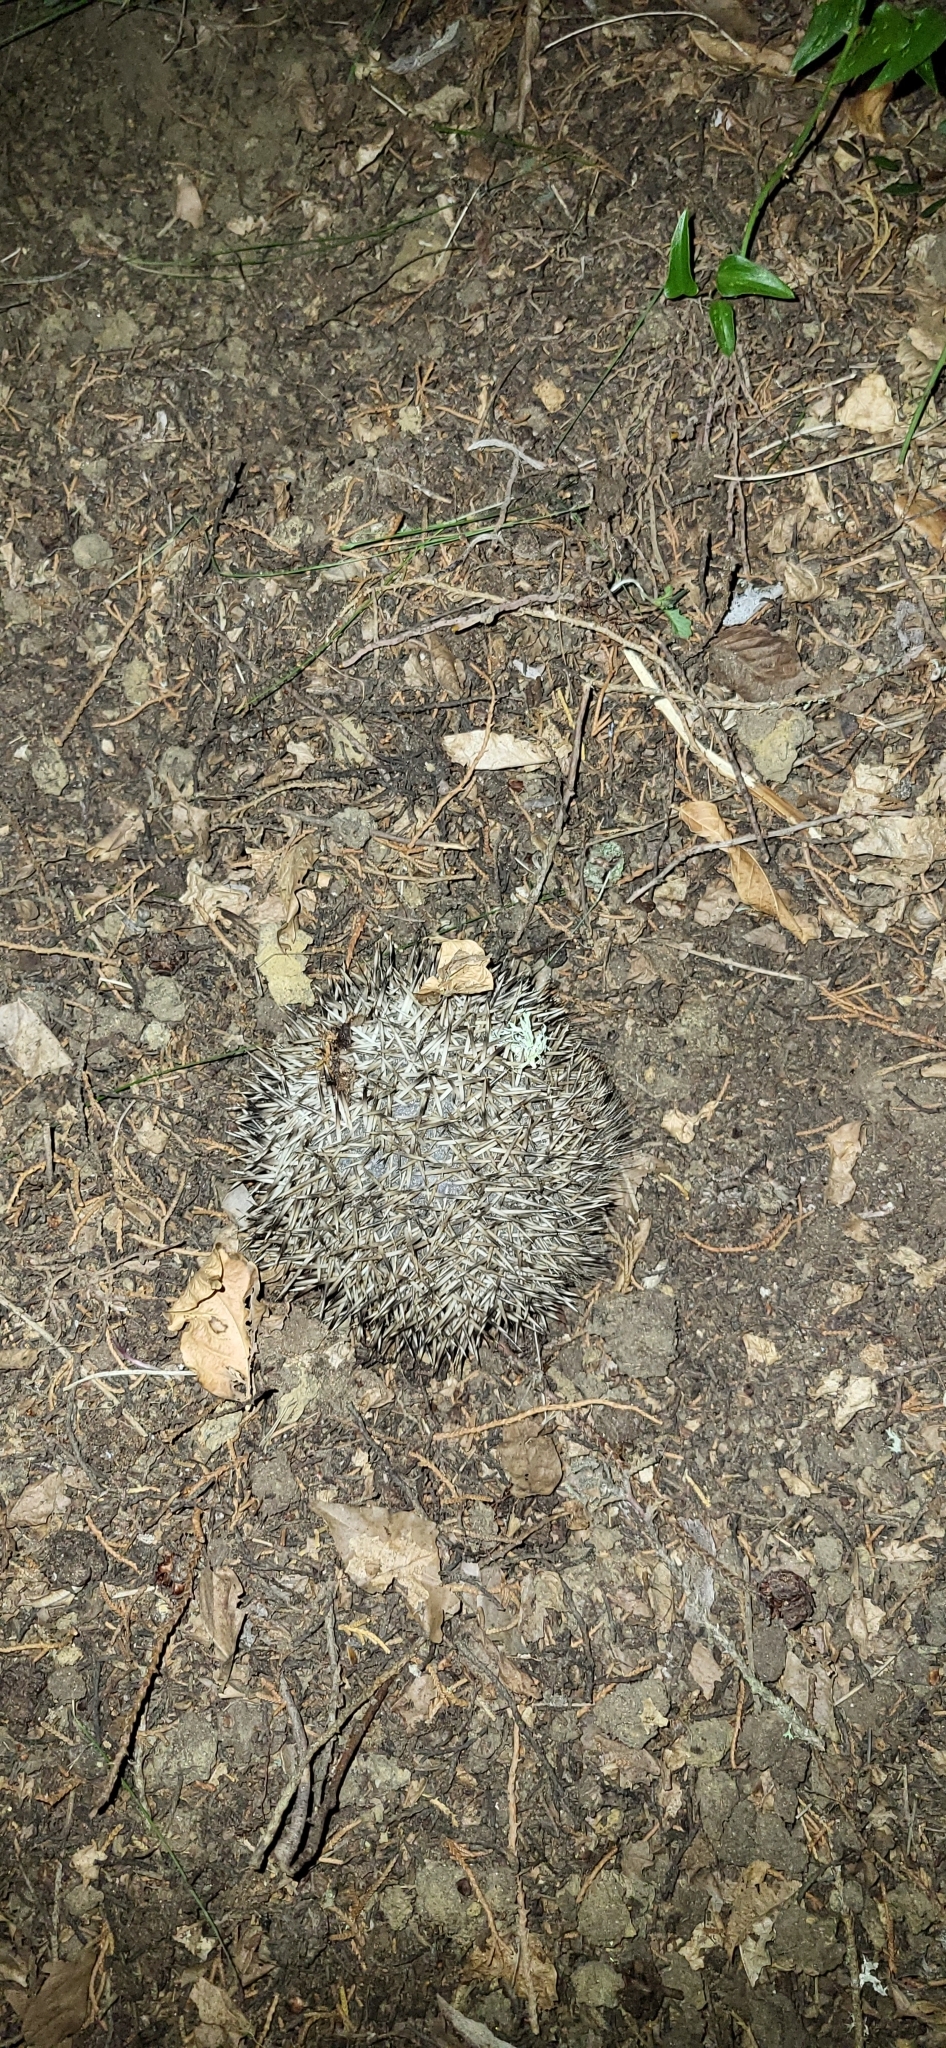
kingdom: Animalia
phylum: Chordata
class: Mammalia
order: Erinaceomorpha
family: Erinaceidae
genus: Erinaceus
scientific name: Erinaceus europaeus
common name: West european hedgehog
